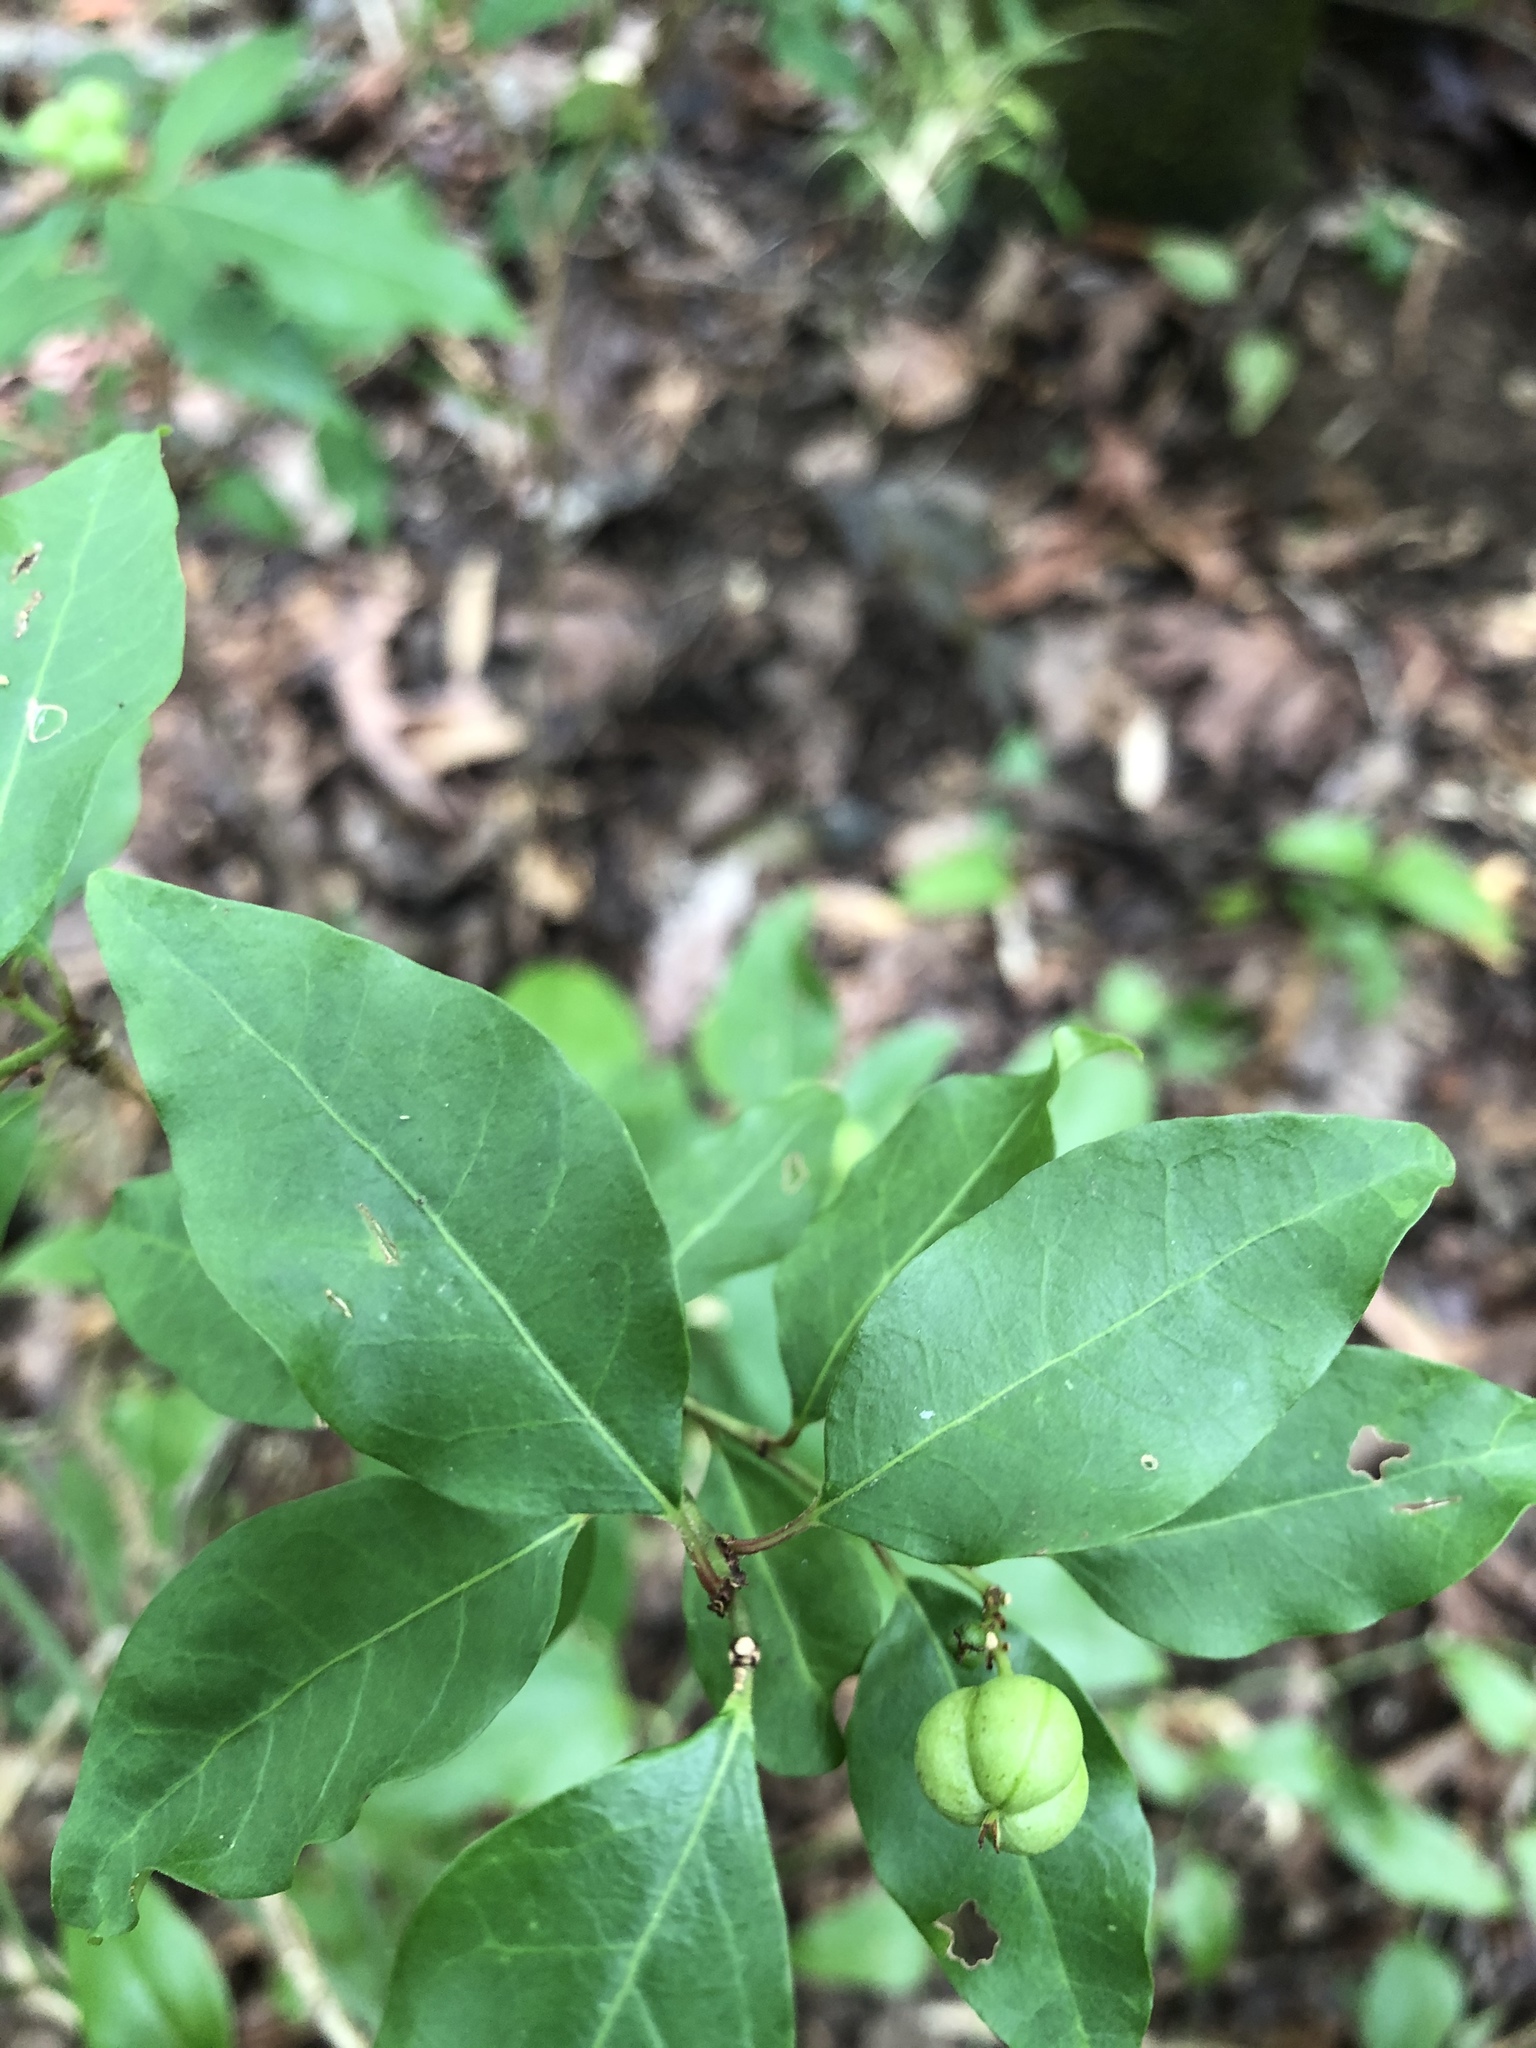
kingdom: Plantae
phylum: Tracheophyta
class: Magnoliopsida
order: Malpighiales
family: Euphorbiaceae
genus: Ditrysinia
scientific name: Ditrysinia fruticosa
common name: Gulf sebastian-bush
